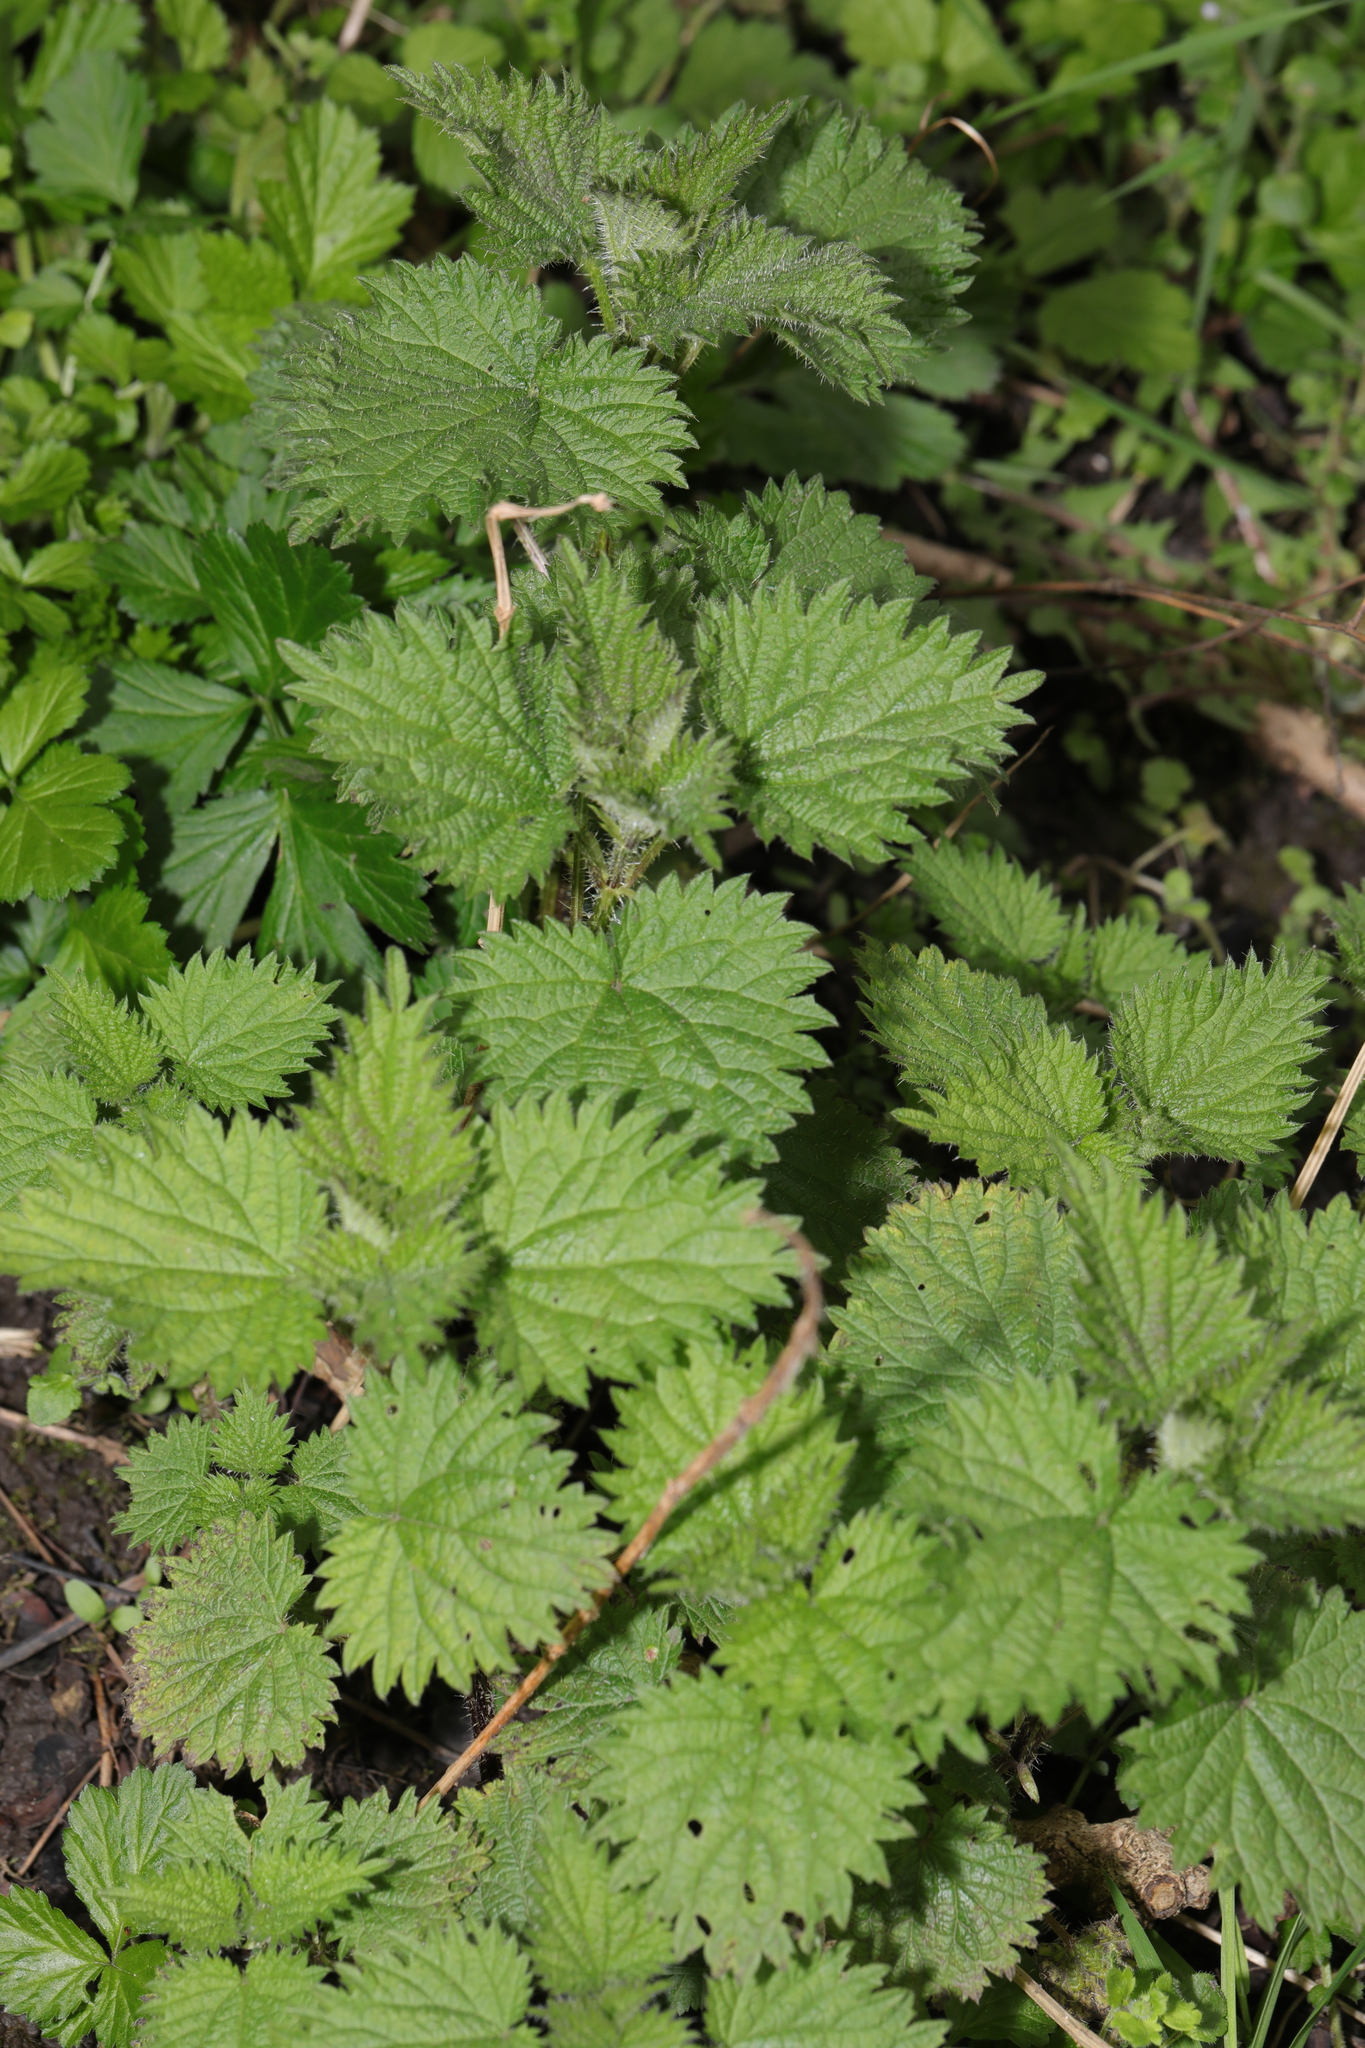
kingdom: Plantae
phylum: Tracheophyta
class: Magnoliopsida
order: Rosales
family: Urticaceae
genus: Urtica
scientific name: Urtica dioica
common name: Common nettle
